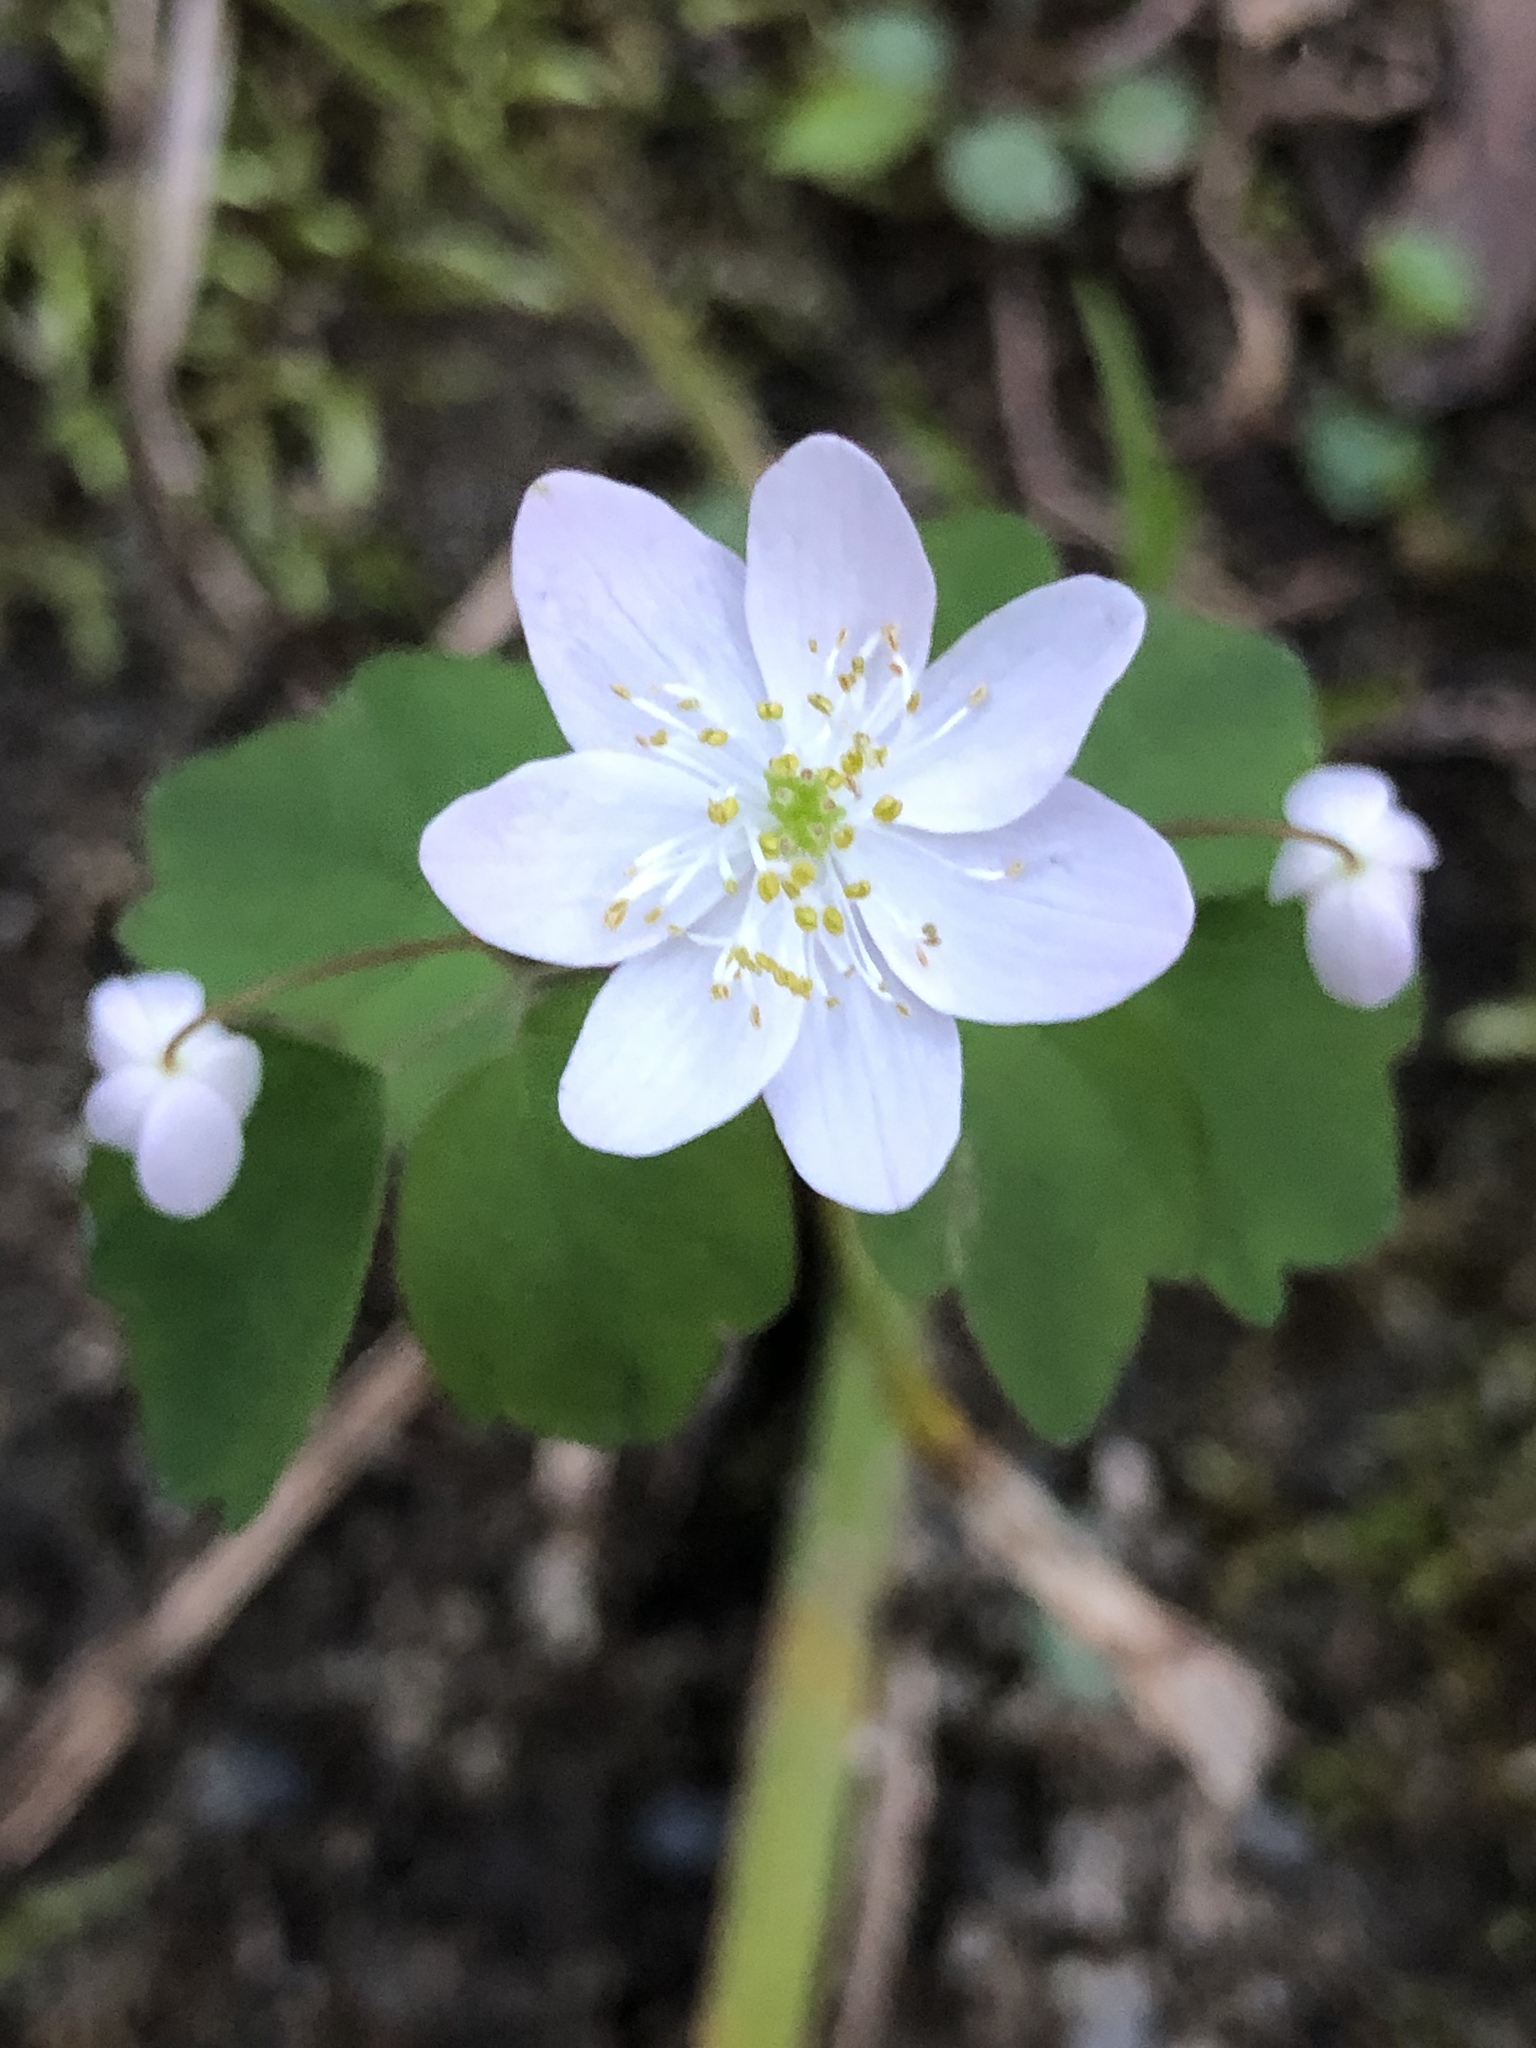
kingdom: Plantae
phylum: Tracheophyta
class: Magnoliopsida
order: Ranunculales
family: Ranunculaceae
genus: Thalictrum
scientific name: Thalictrum thalictroides
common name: Rue-anemone
